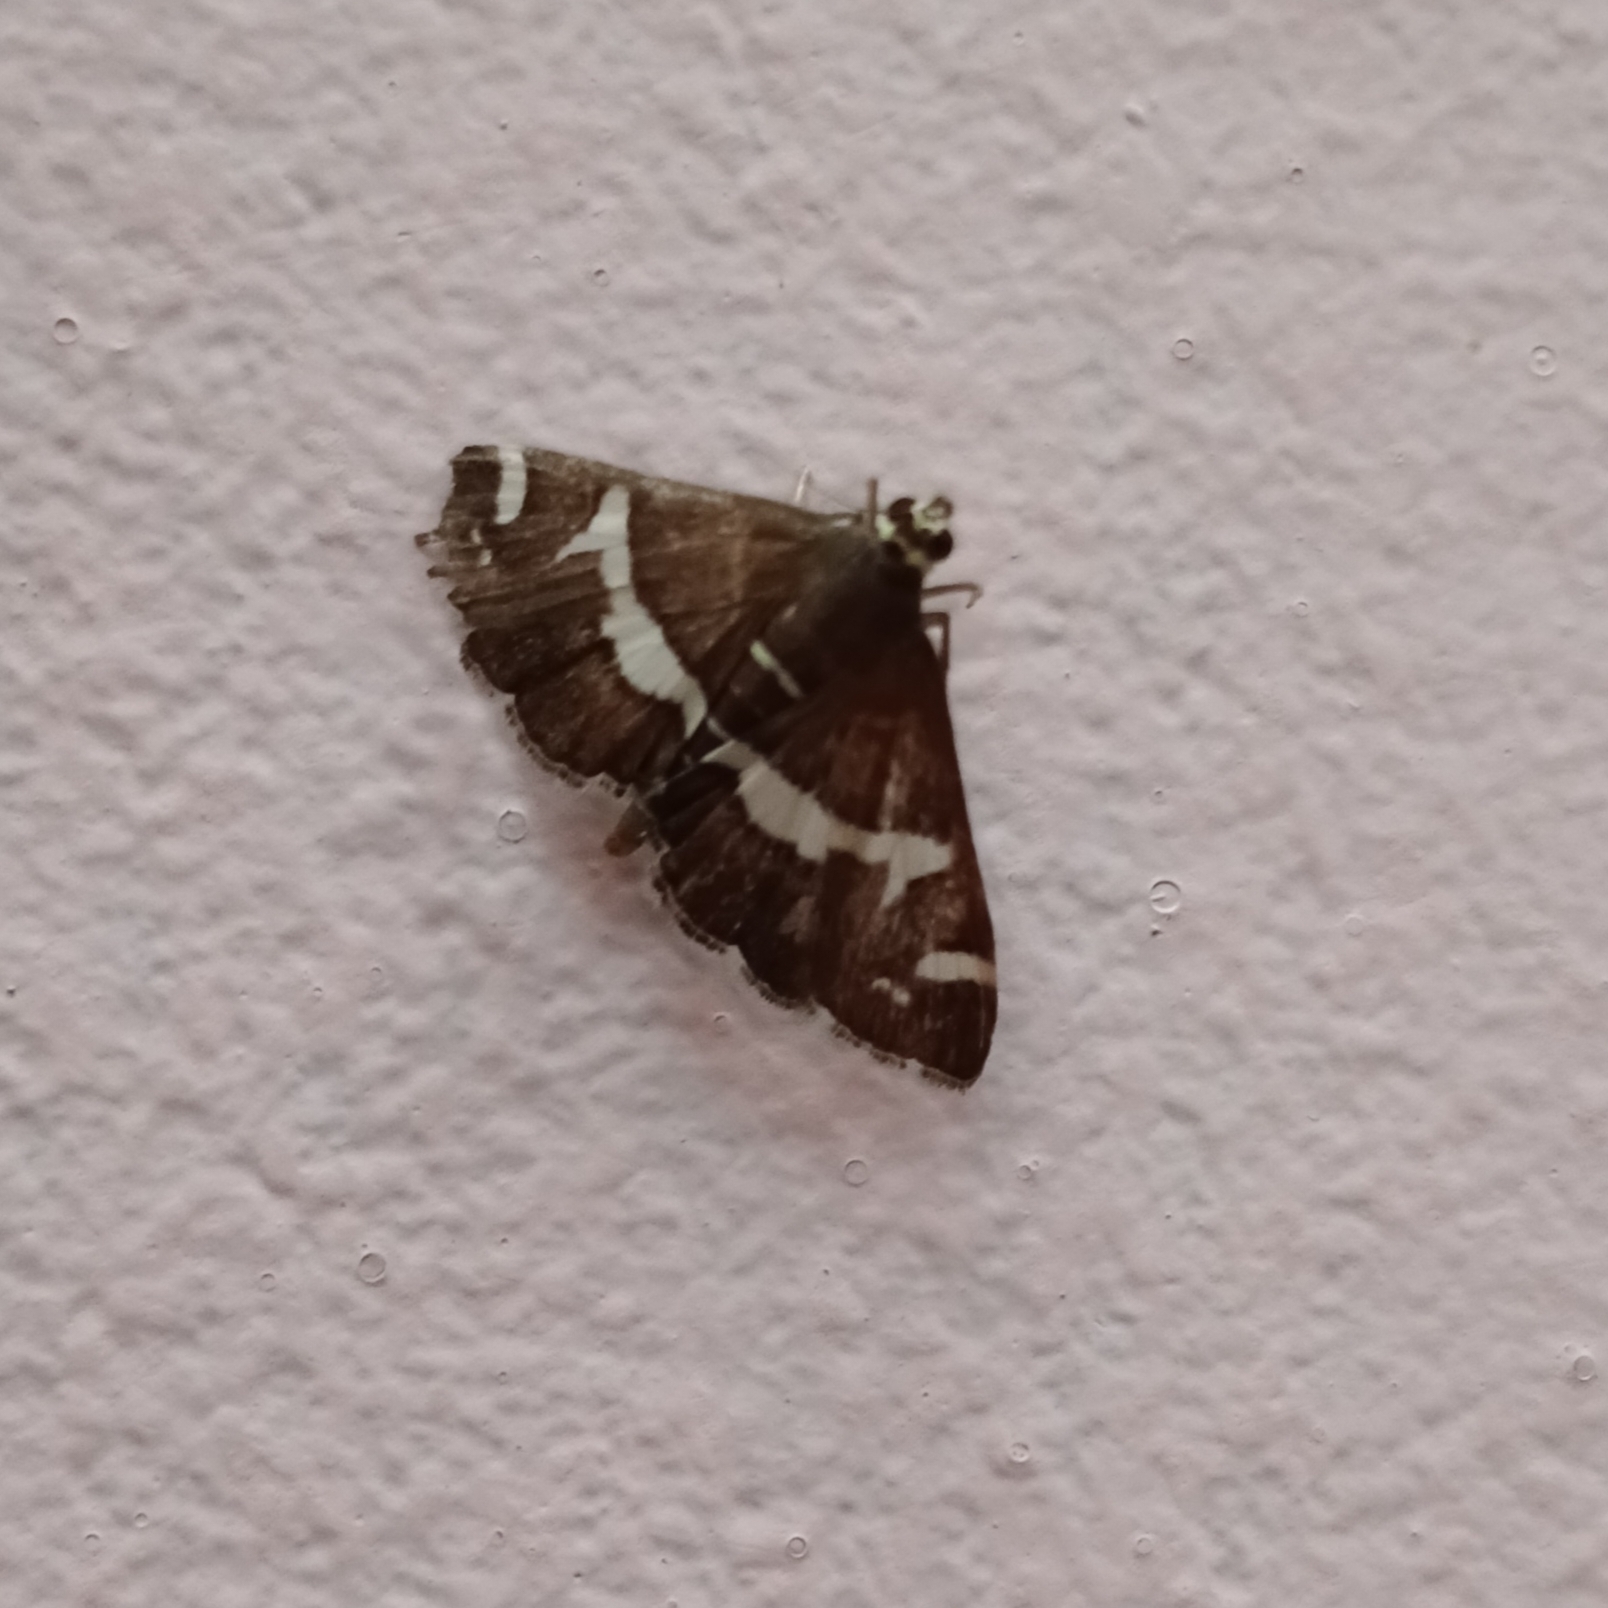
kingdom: Animalia
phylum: Arthropoda
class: Insecta
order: Lepidoptera
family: Crambidae
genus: Spoladea
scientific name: Spoladea recurvalis
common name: Beet webworm moth
